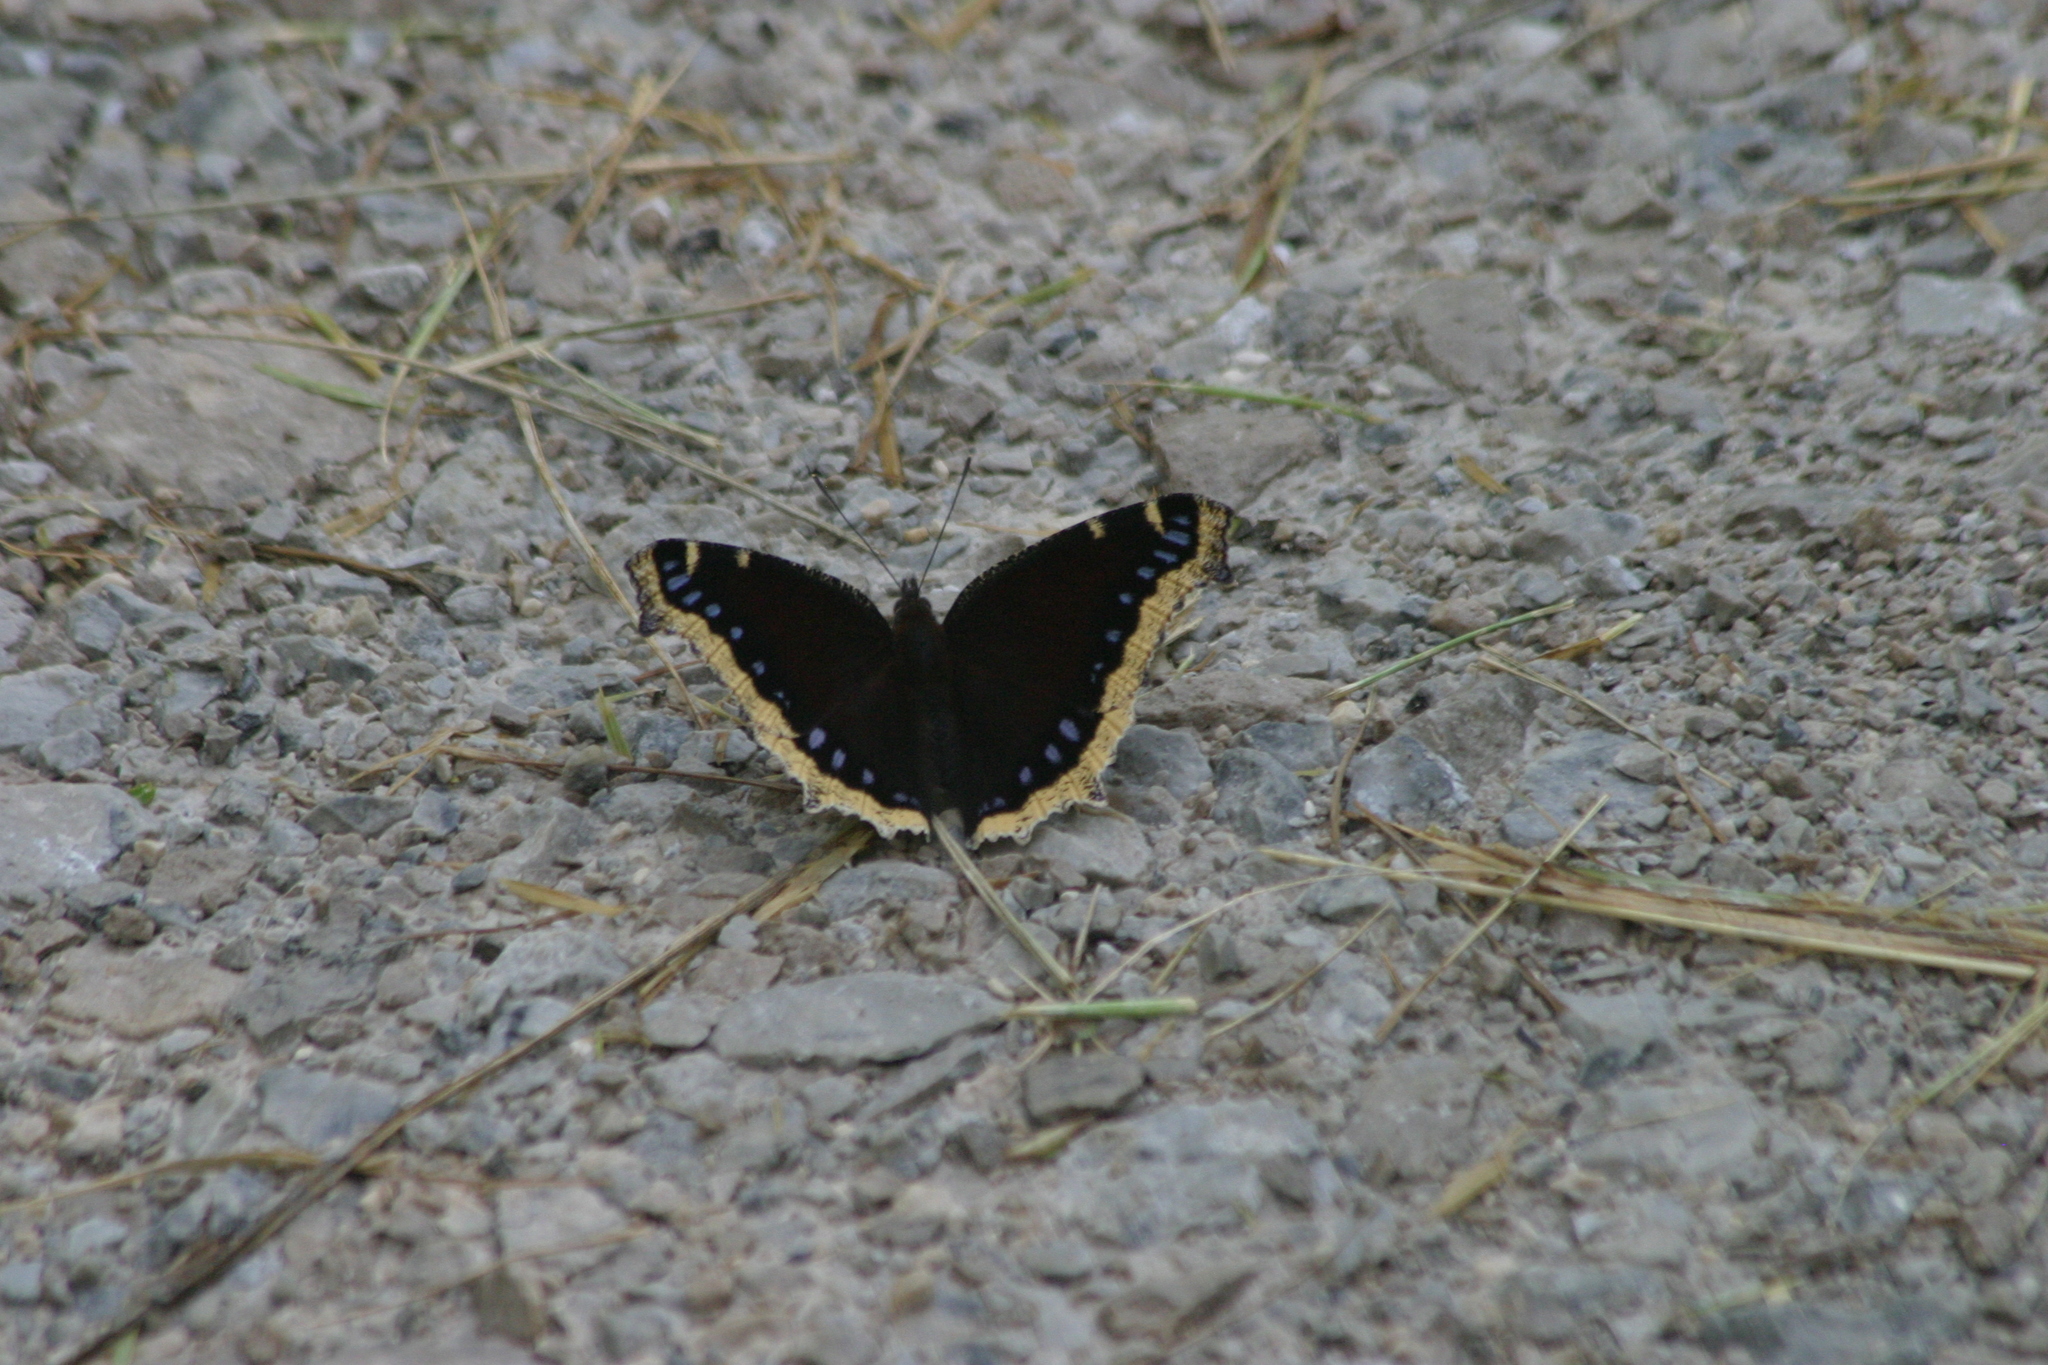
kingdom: Animalia
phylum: Arthropoda
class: Insecta
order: Lepidoptera
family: Nymphalidae
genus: Nymphalis
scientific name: Nymphalis antiopa
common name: Camberwell beauty
